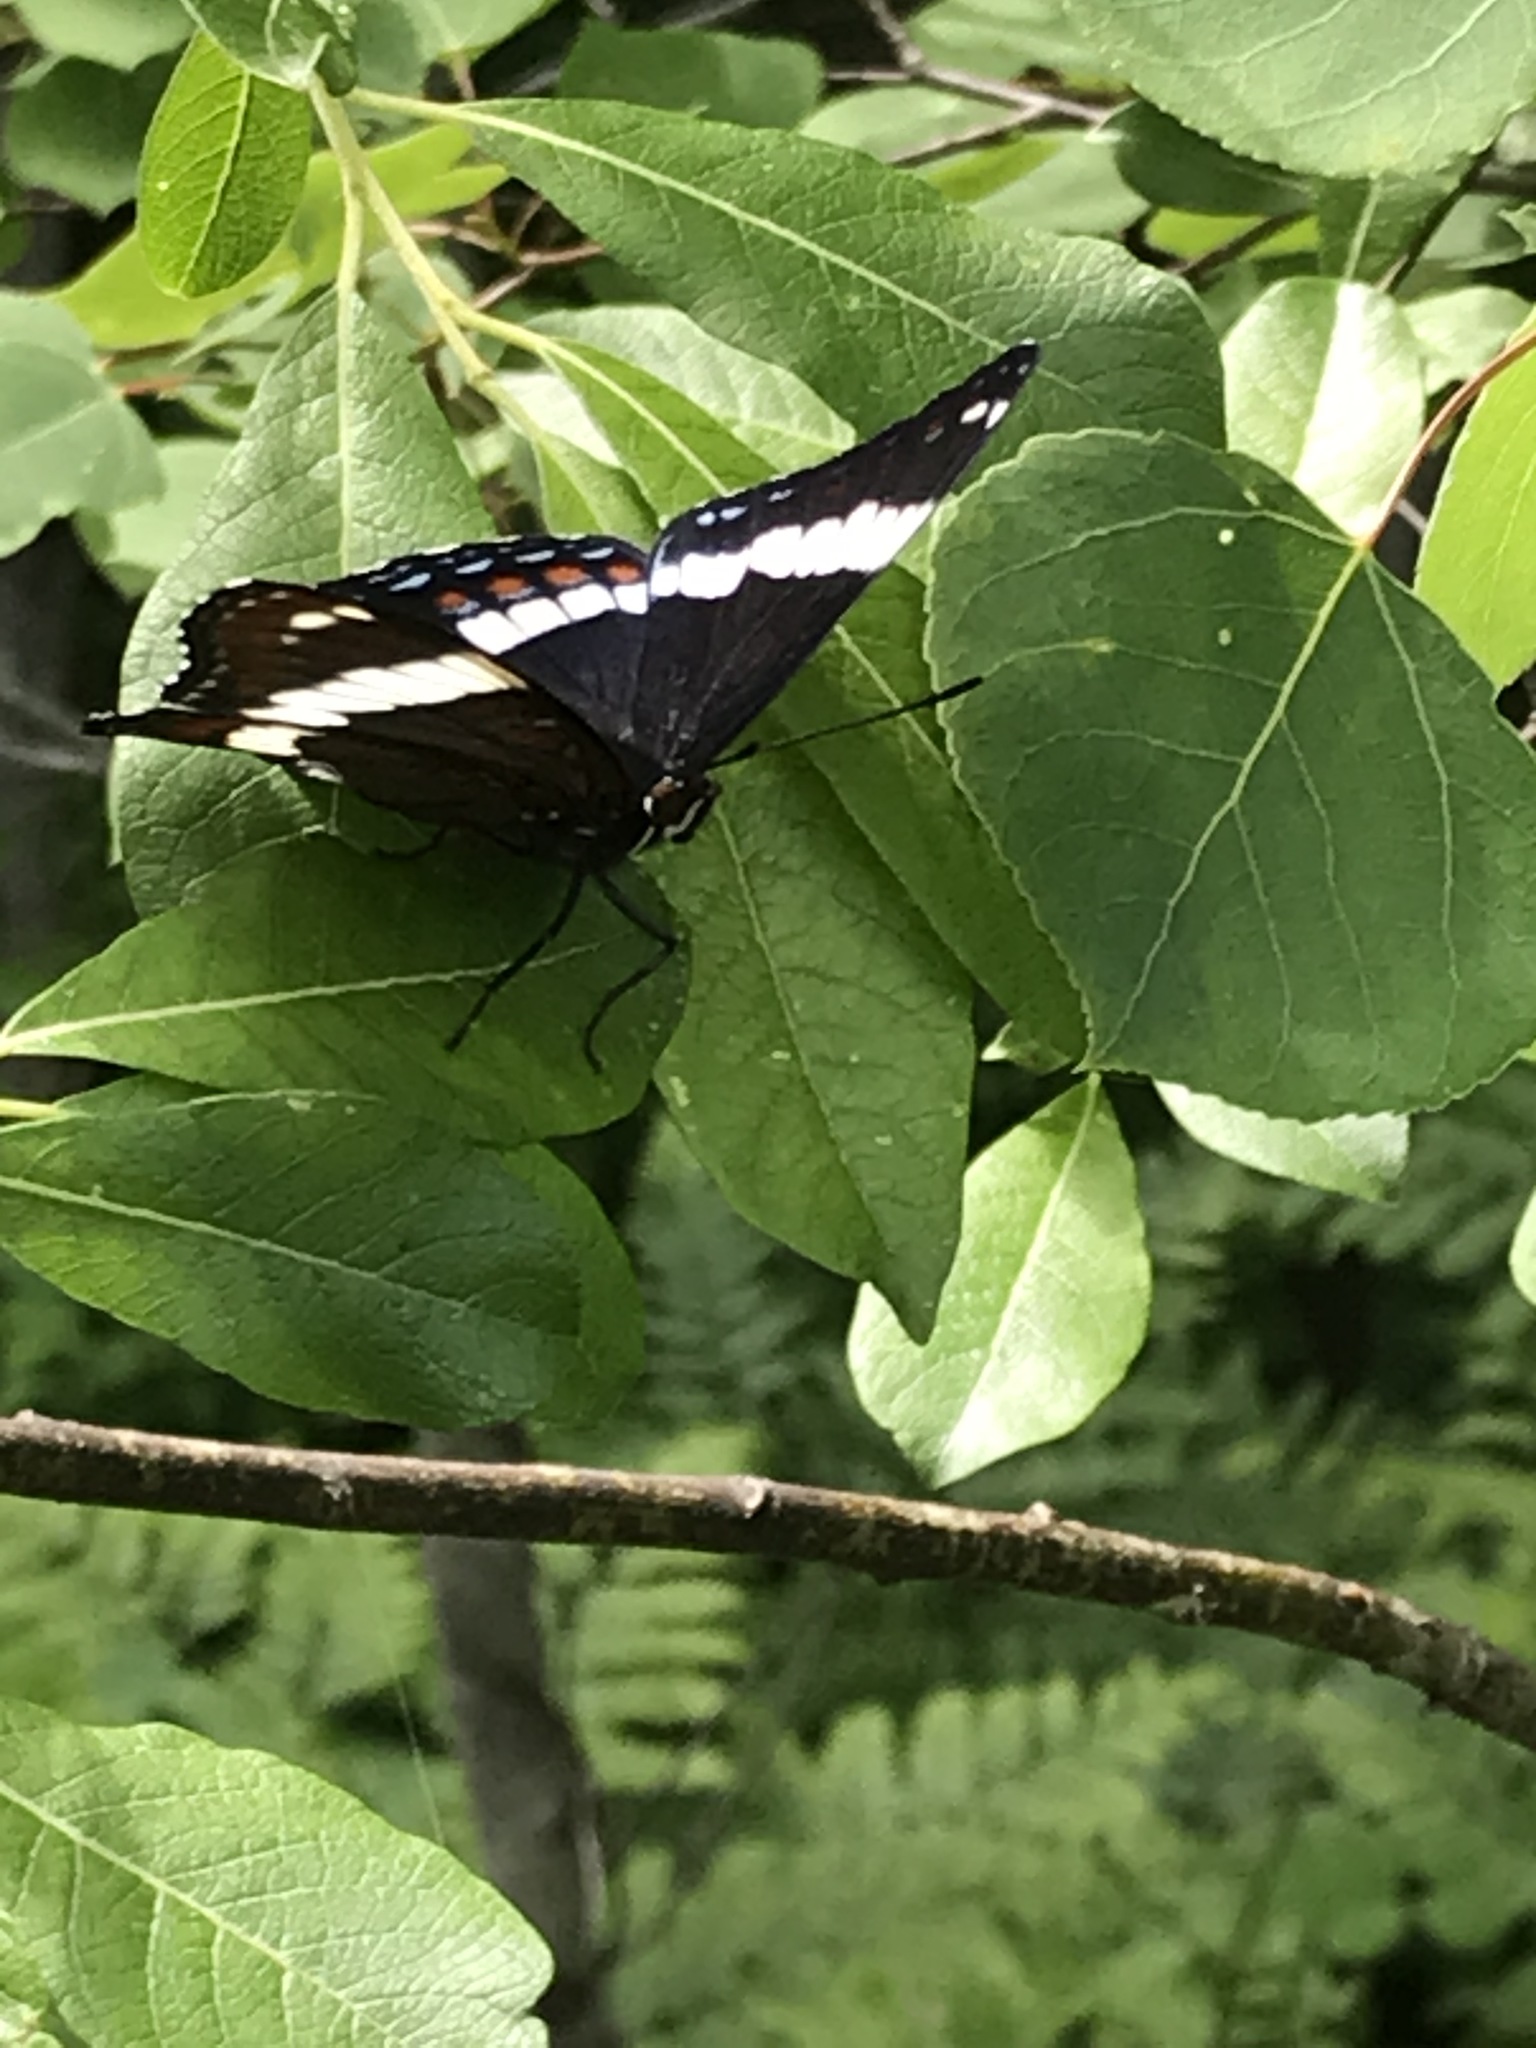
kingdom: Animalia
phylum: Arthropoda
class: Insecta
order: Lepidoptera
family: Nymphalidae
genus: Limenitis
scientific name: Limenitis arthemis
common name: Red-spotted admiral
